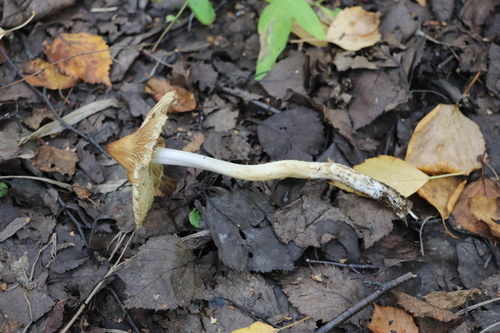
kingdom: Fungi
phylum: Basidiomycota
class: Agaricomycetes
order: Agaricales
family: Inocybaceae
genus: Inocybe
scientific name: Inocybe
